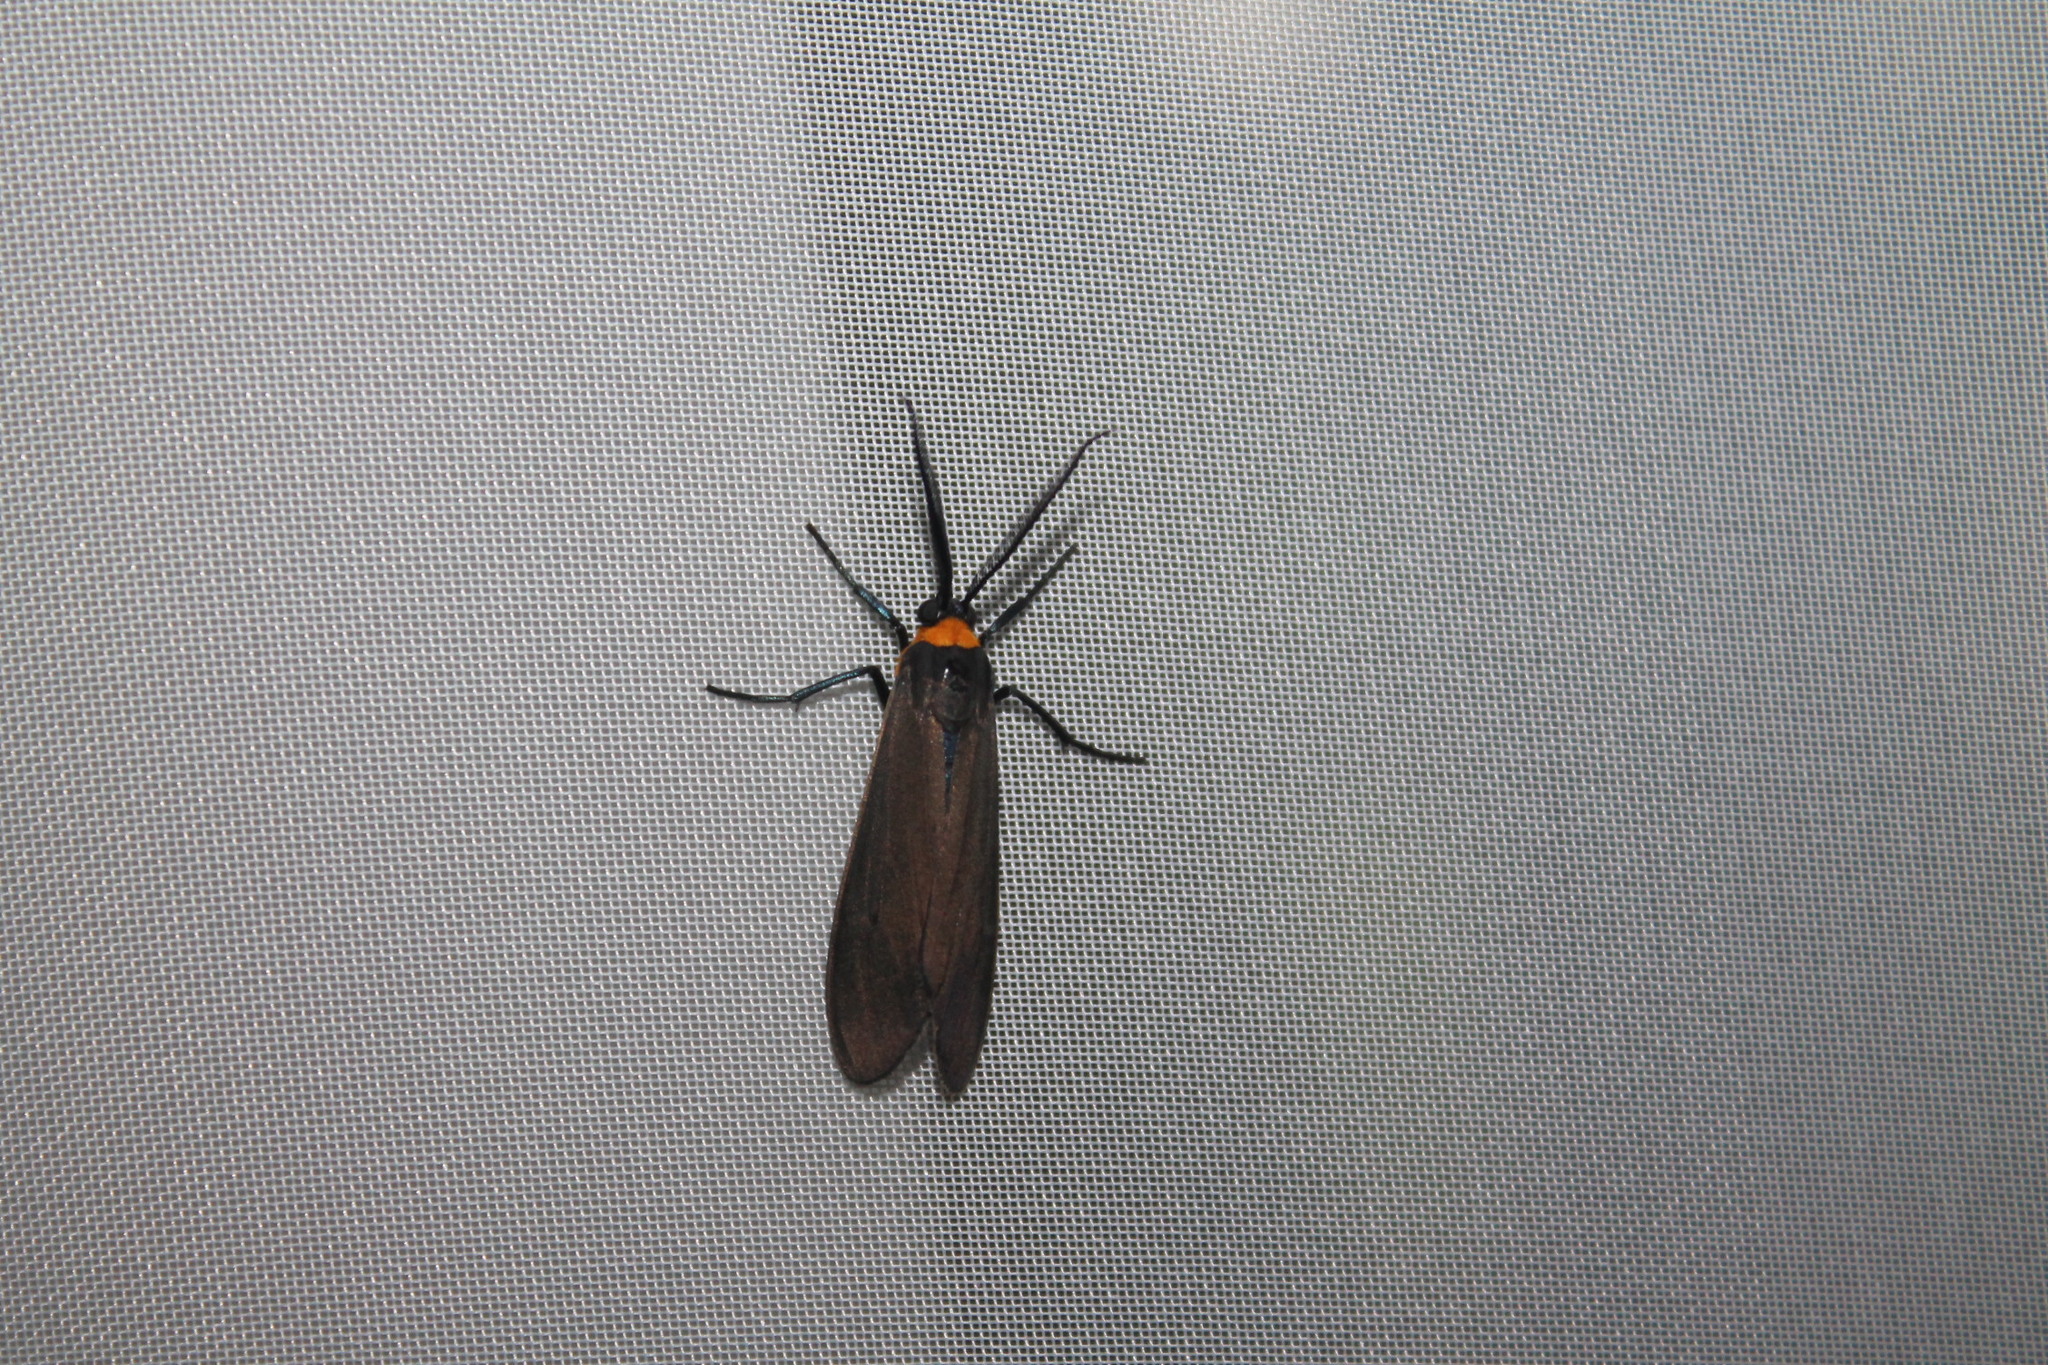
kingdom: Animalia
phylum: Arthropoda
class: Insecta
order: Lepidoptera
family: Erebidae
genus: Cisseps
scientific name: Cisseps fulvicollis
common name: Yellow-collared scape moth
